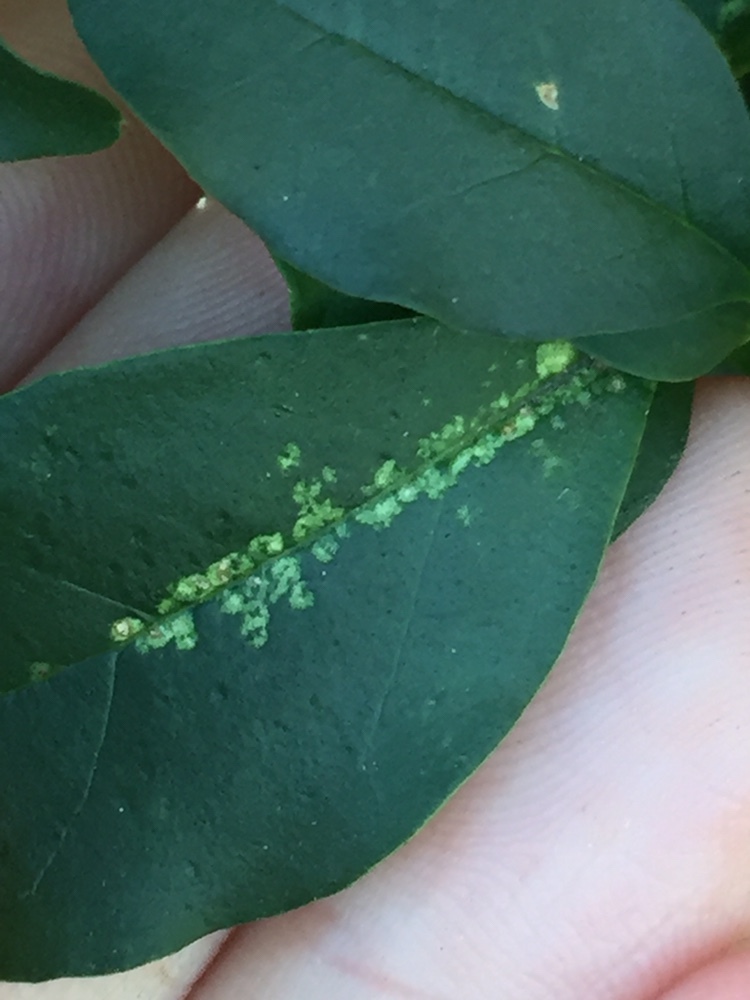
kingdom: Animalia
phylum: Arthropoda
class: Insecta
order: Hemiptera
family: Tingidae
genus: Leptoypha
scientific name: Leptoypha hospita
